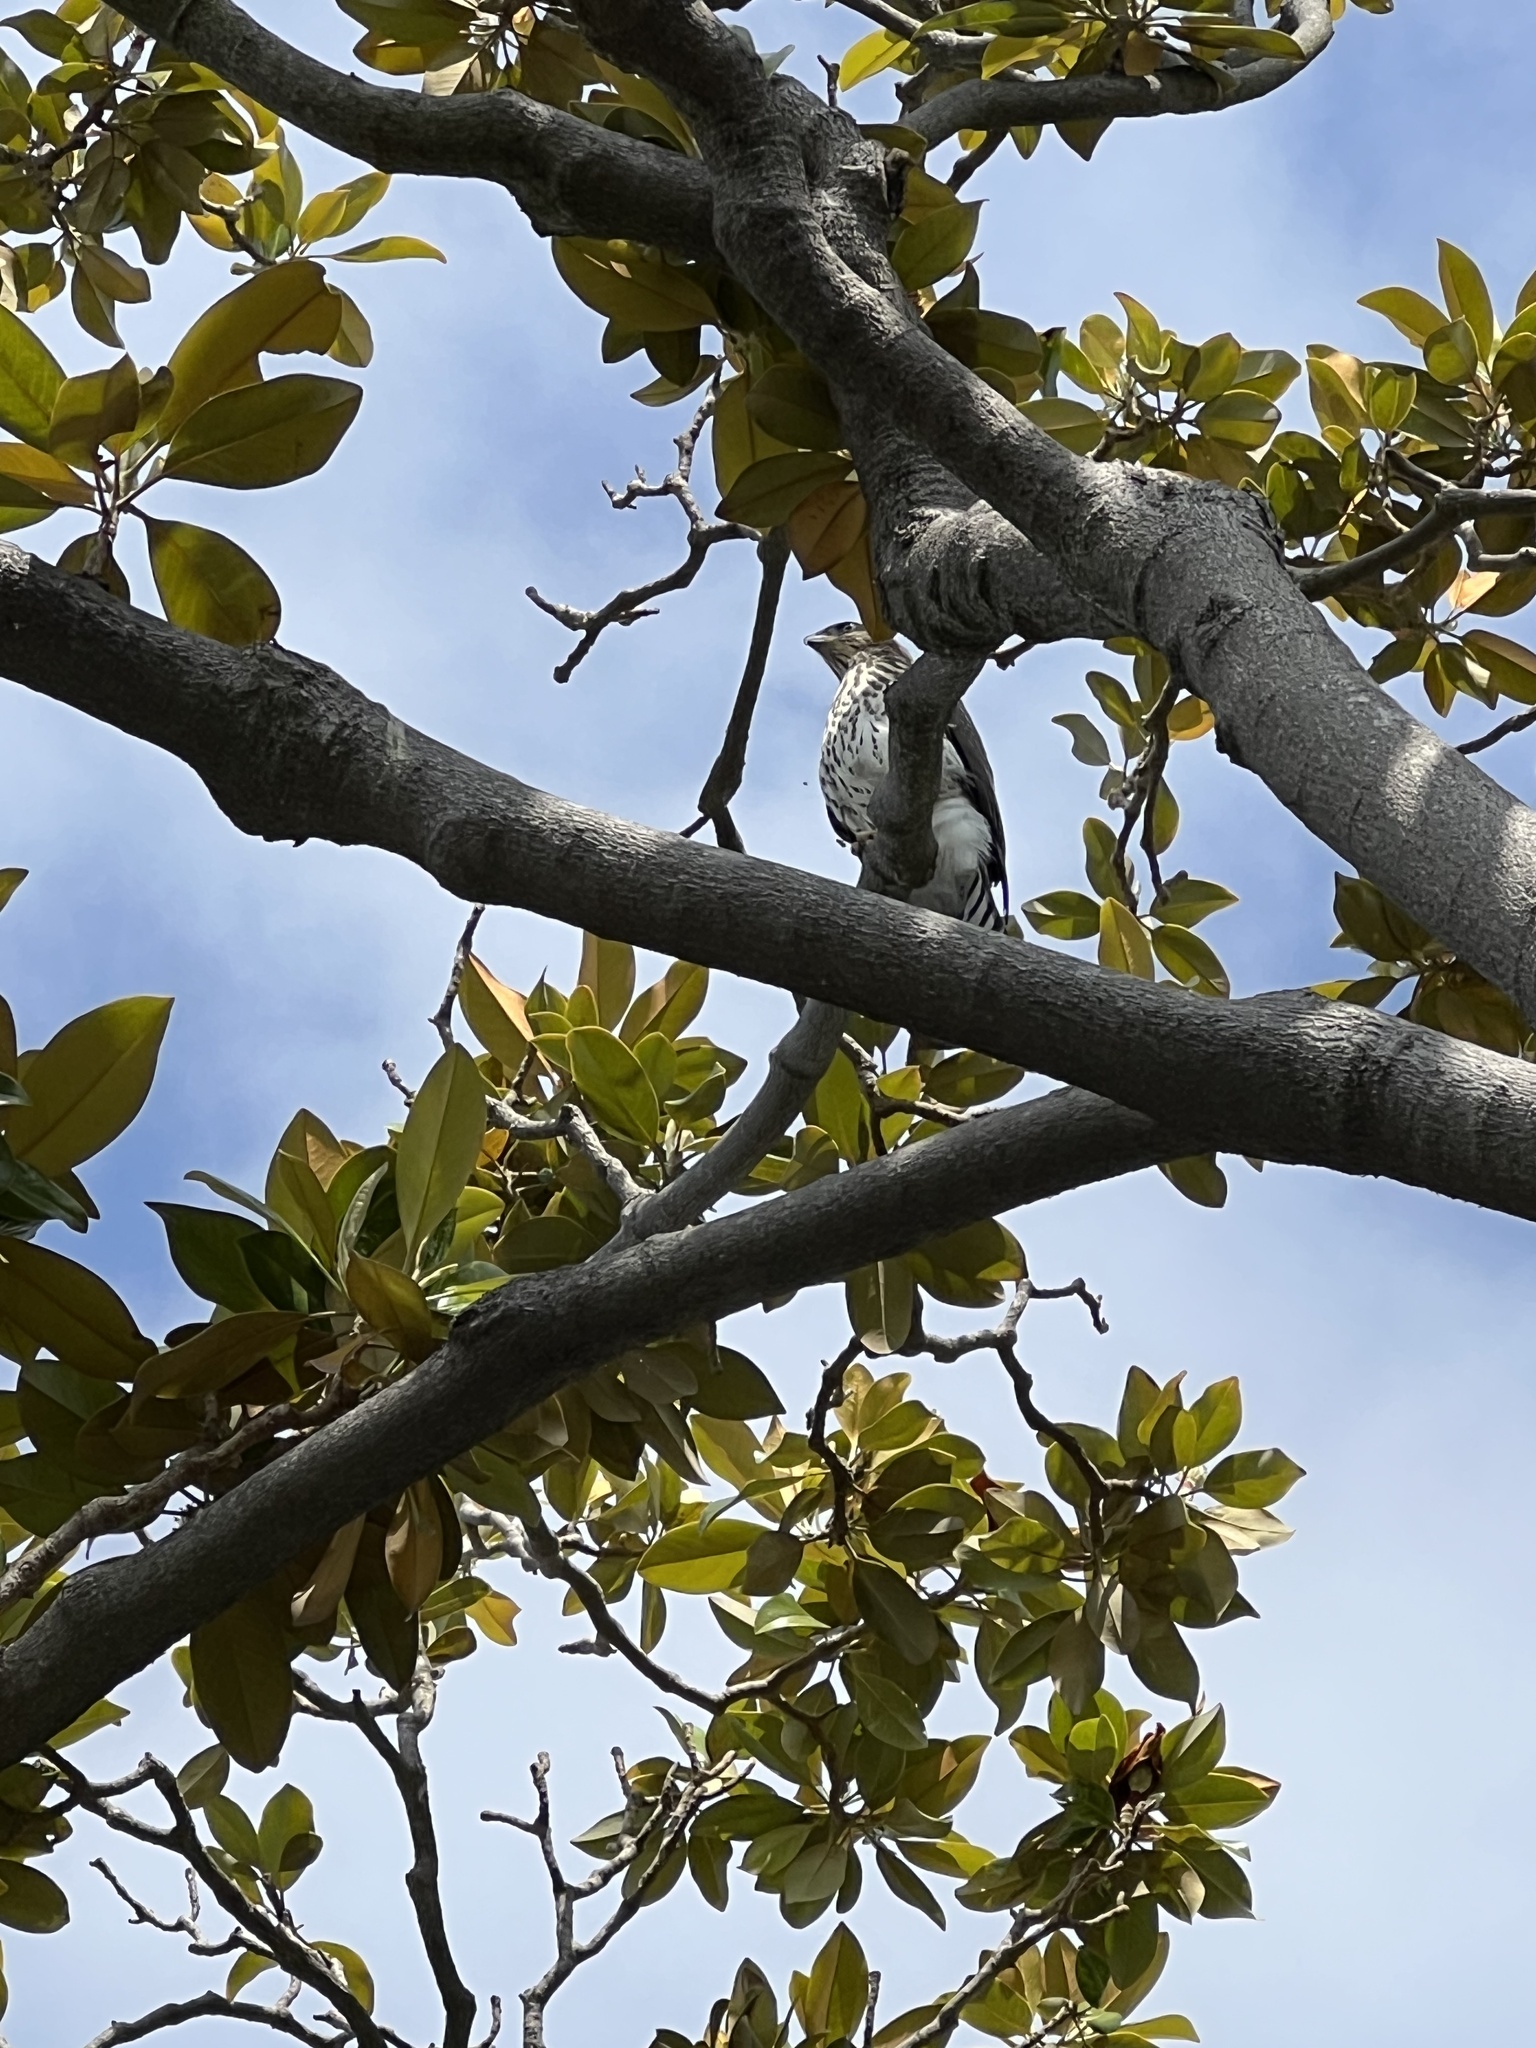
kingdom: Animalia
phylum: Chordata
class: Aves
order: Accipitriformes
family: Accipitridae
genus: Accipiter
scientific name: Accipiter cooperii
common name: Cooper's hawk
